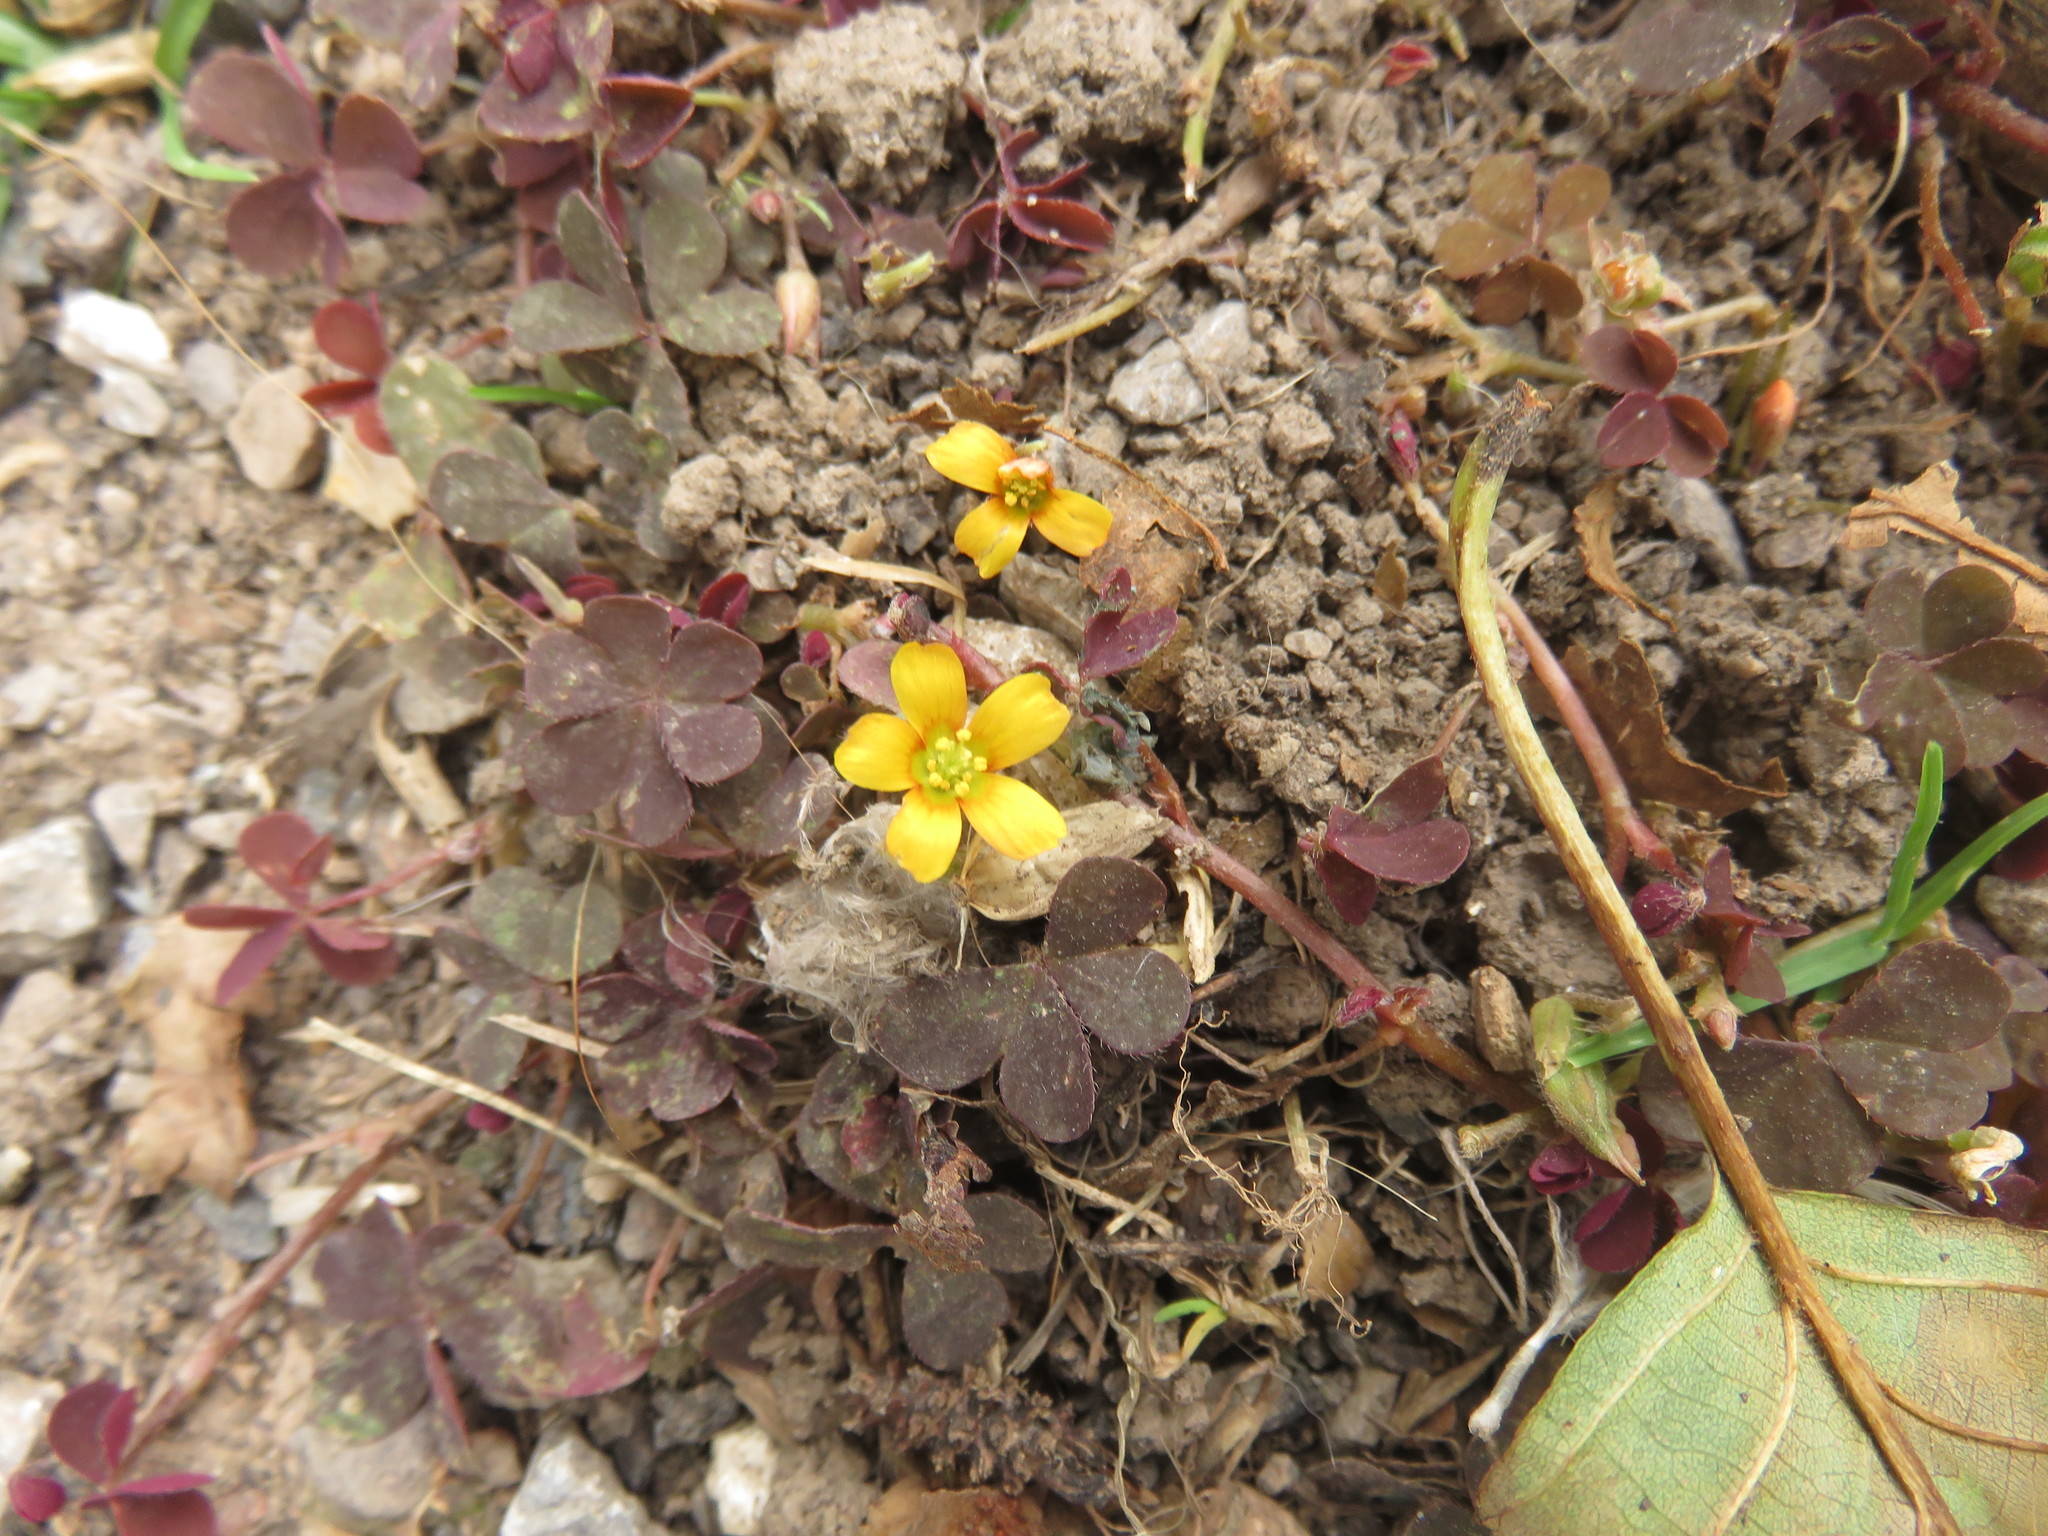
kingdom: Plantae
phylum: Tracheophyta
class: Magnoliopsida
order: Oxalidales
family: Oxalidaceae
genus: Oxalis
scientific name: Oxalis corniculata
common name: Procumbent yellow-sorrel
